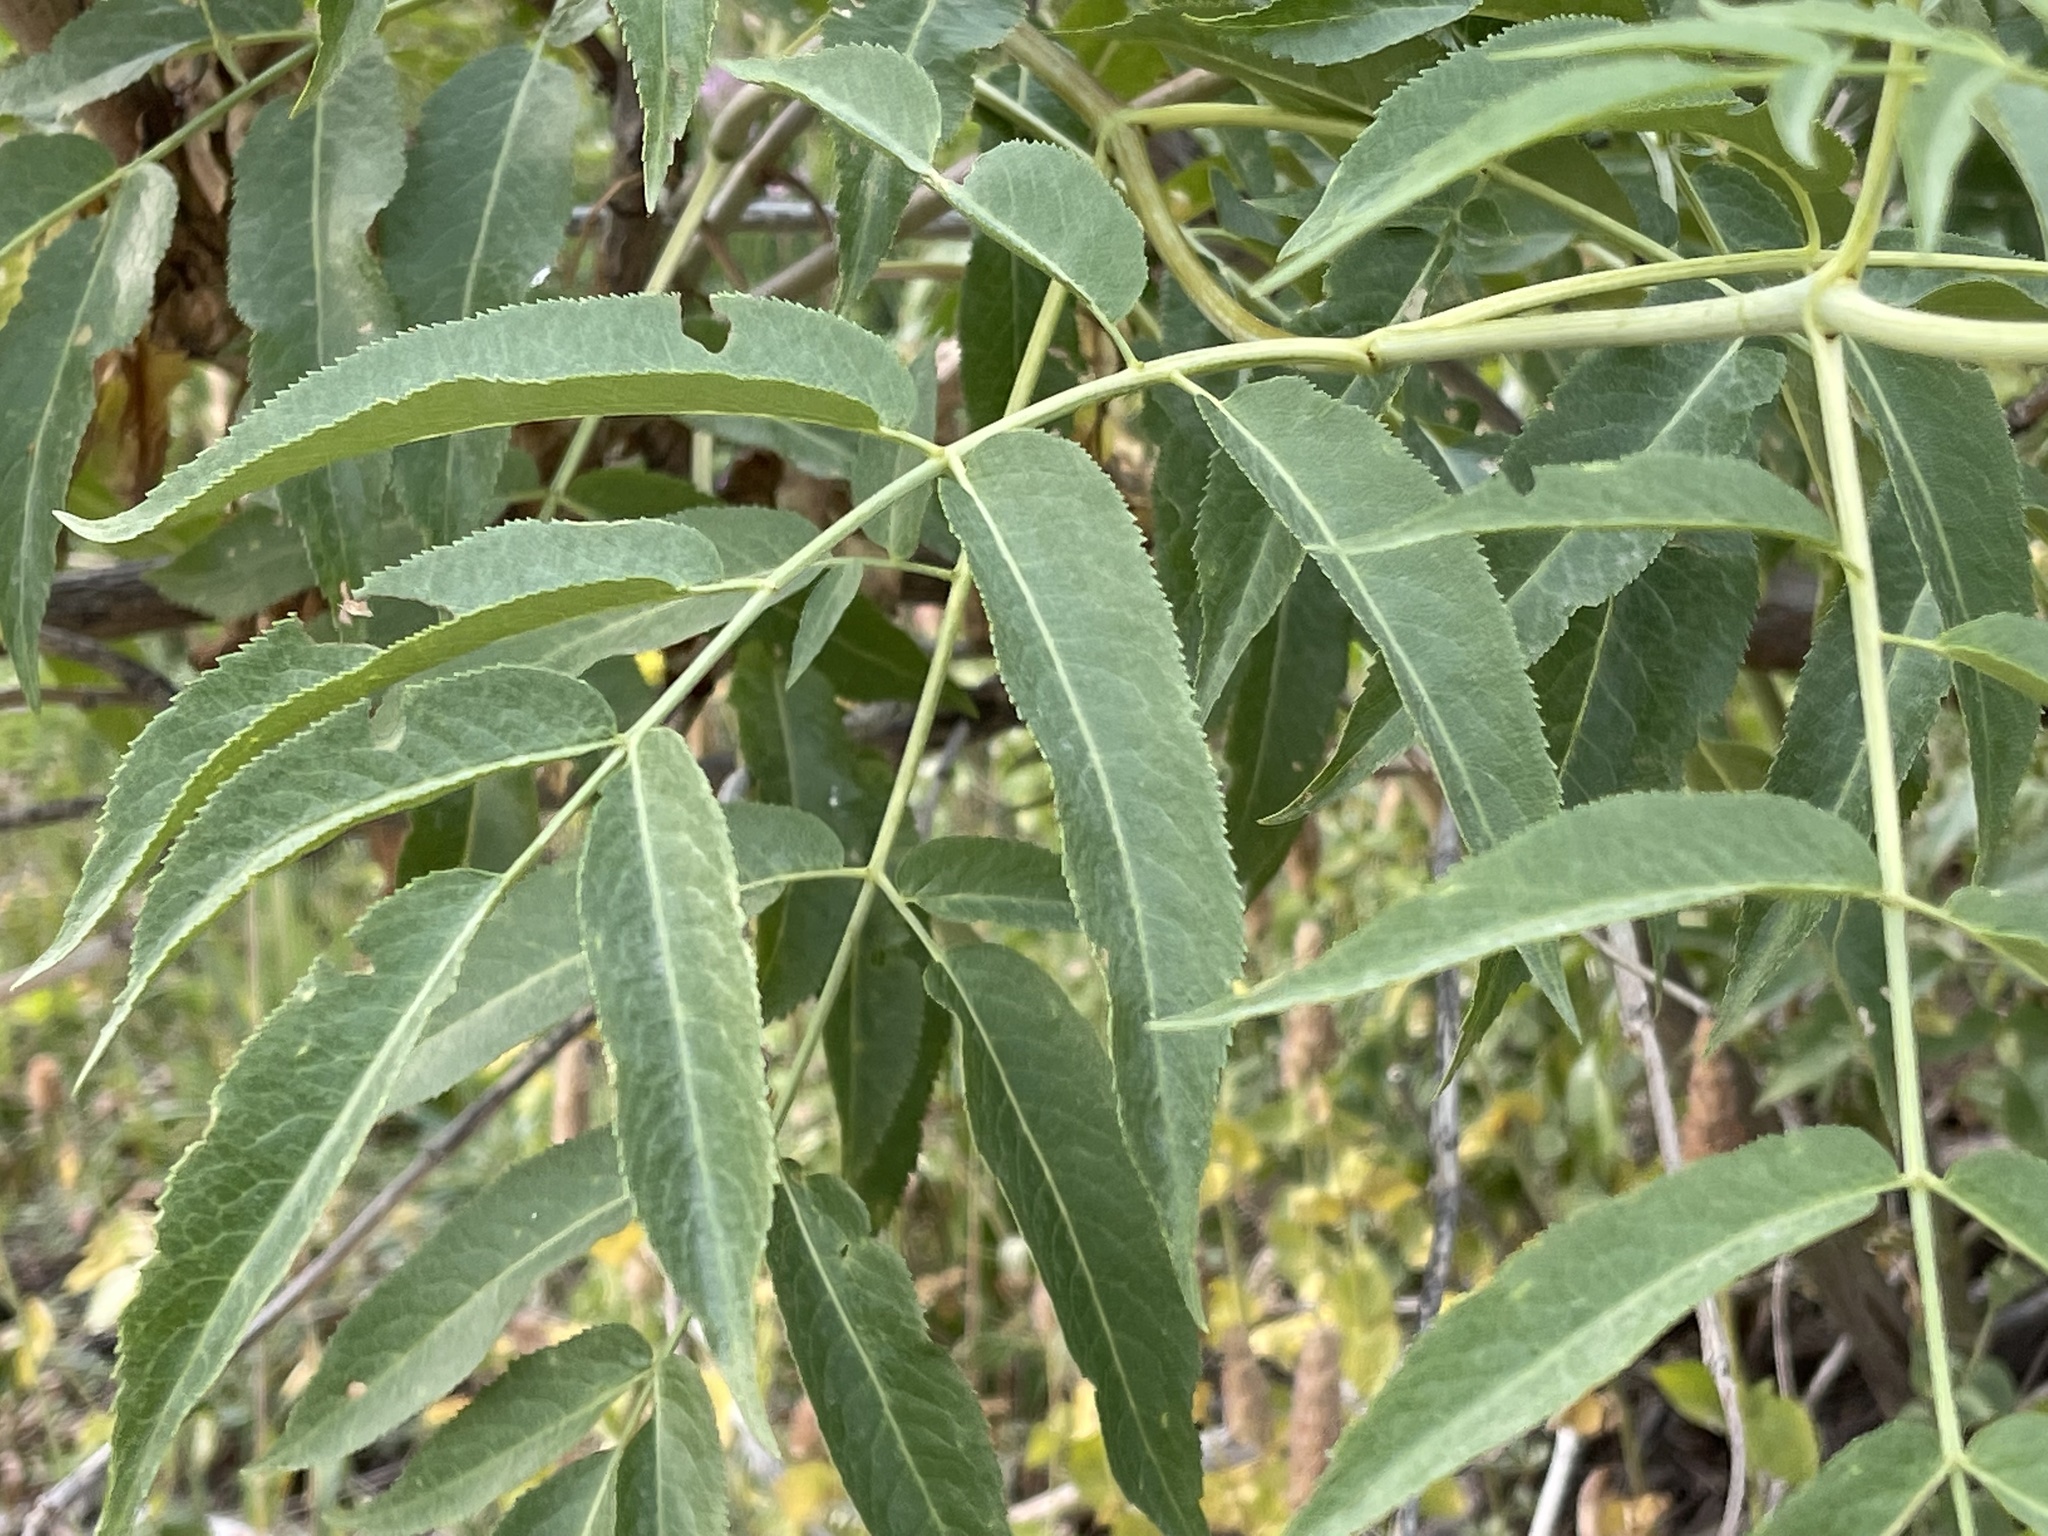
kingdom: Plantae
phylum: Tracheophyta
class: Magnoliopsida
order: Dipsacales
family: Viburnaceae
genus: Sambucus
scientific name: Sambucus cerulea
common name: Blue elder
